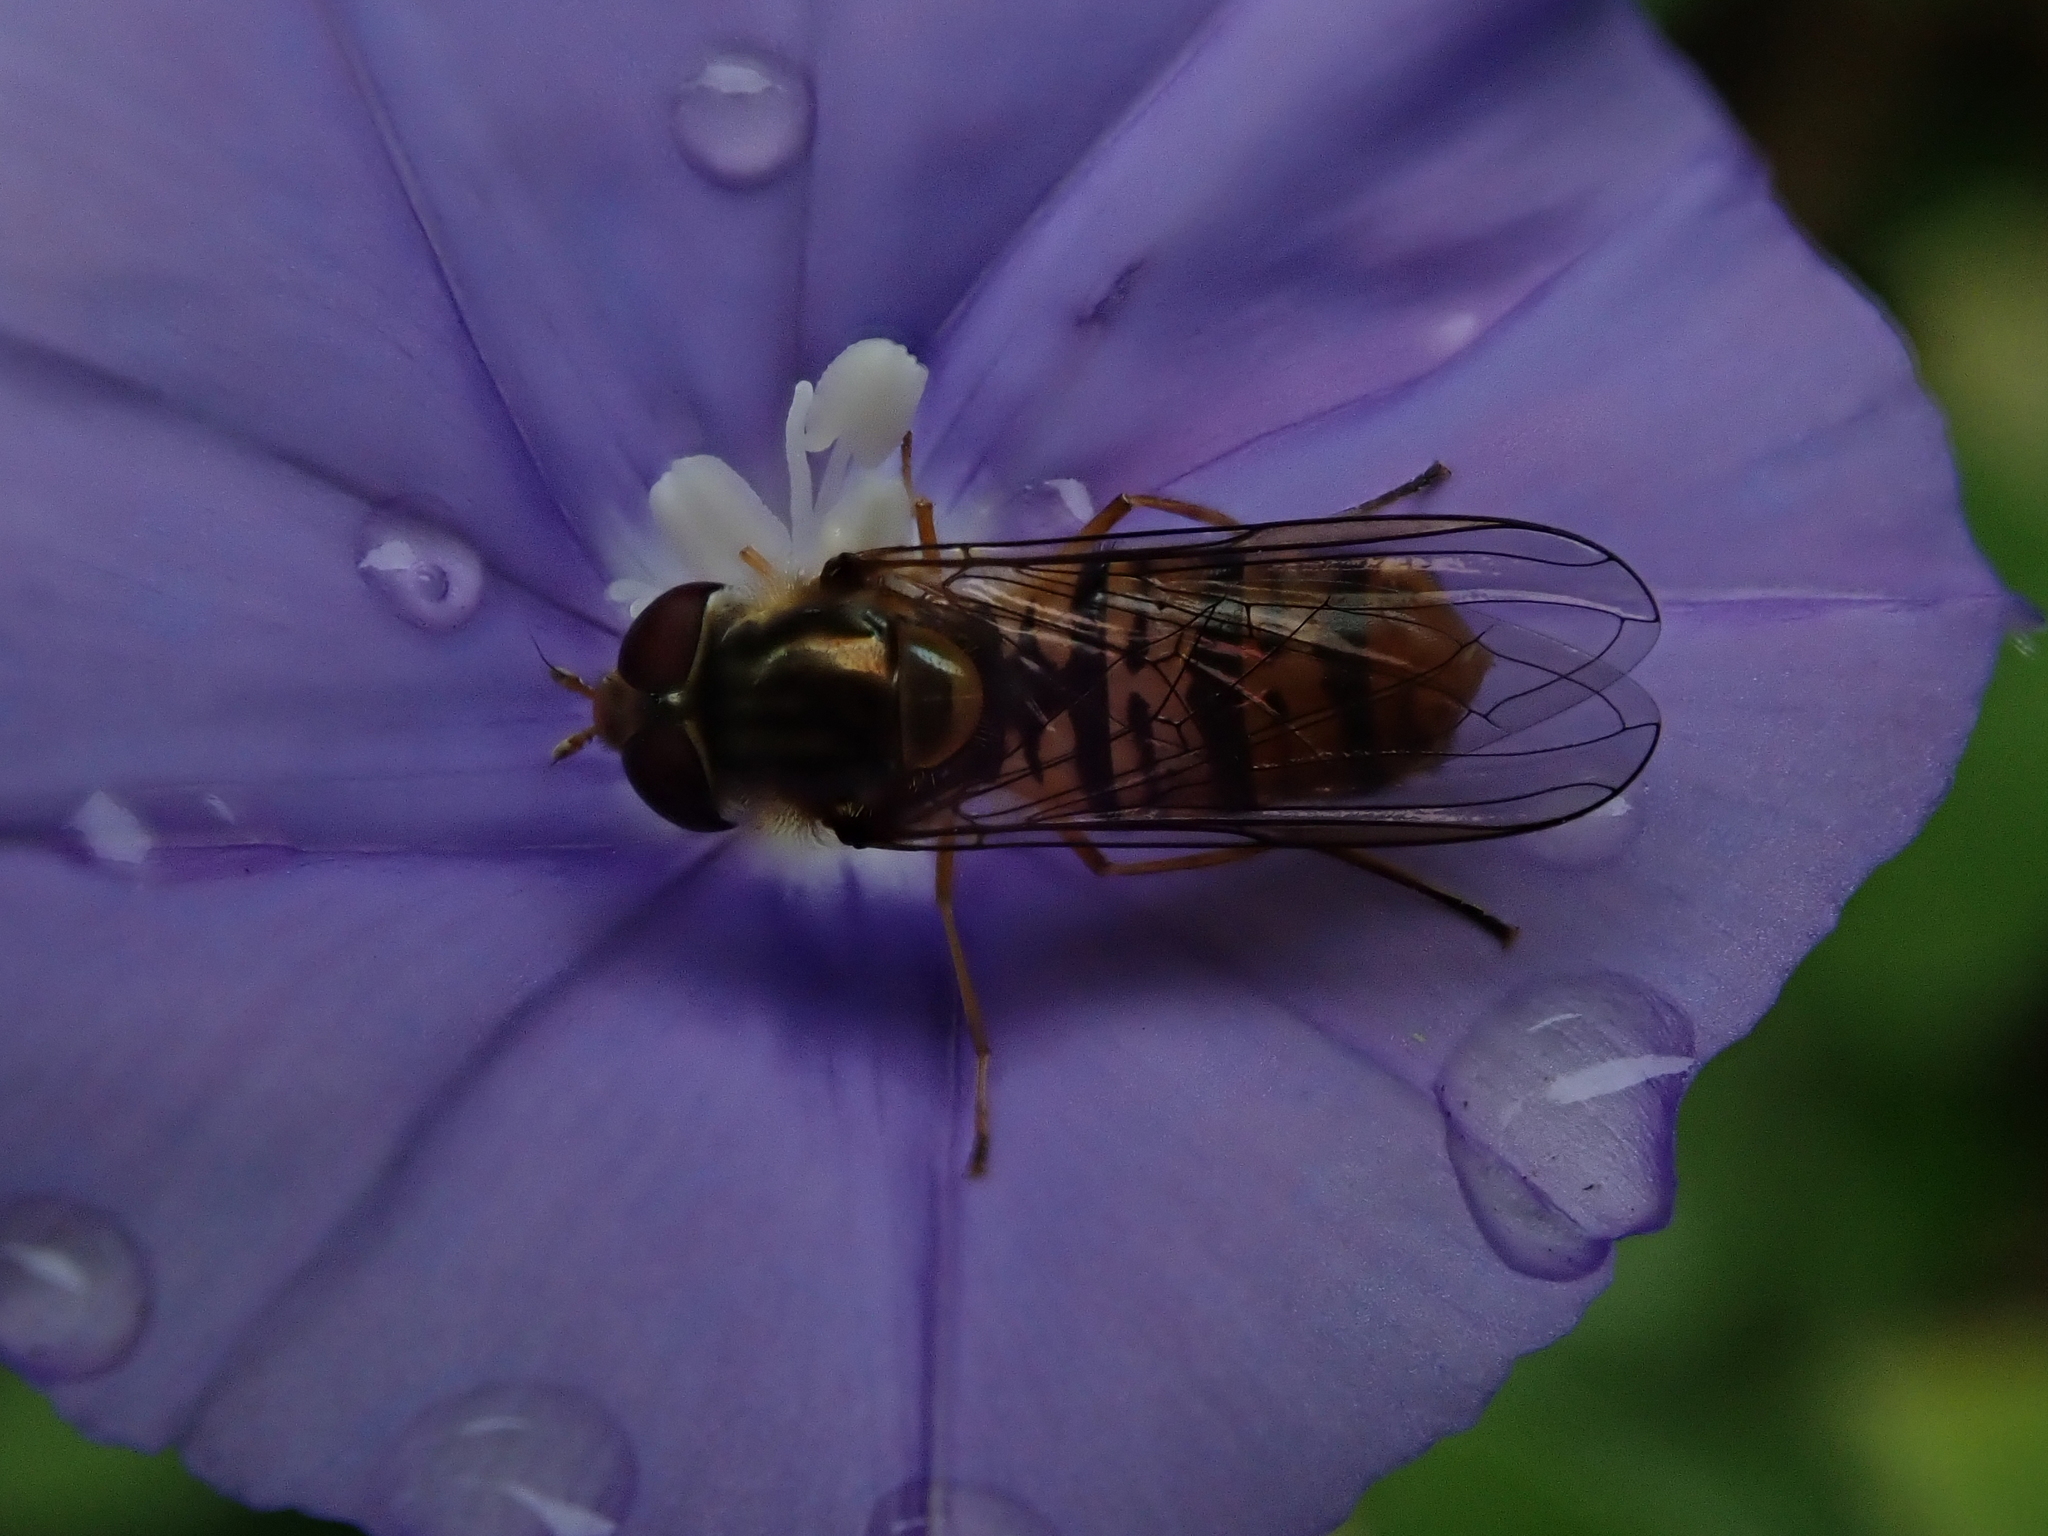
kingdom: Animalia
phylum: Arthropoda
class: Insecta
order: Diptera
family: Syrphidae
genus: Episyrphus
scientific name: Episyrphus balteatus
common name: Marmalade hoverfly
